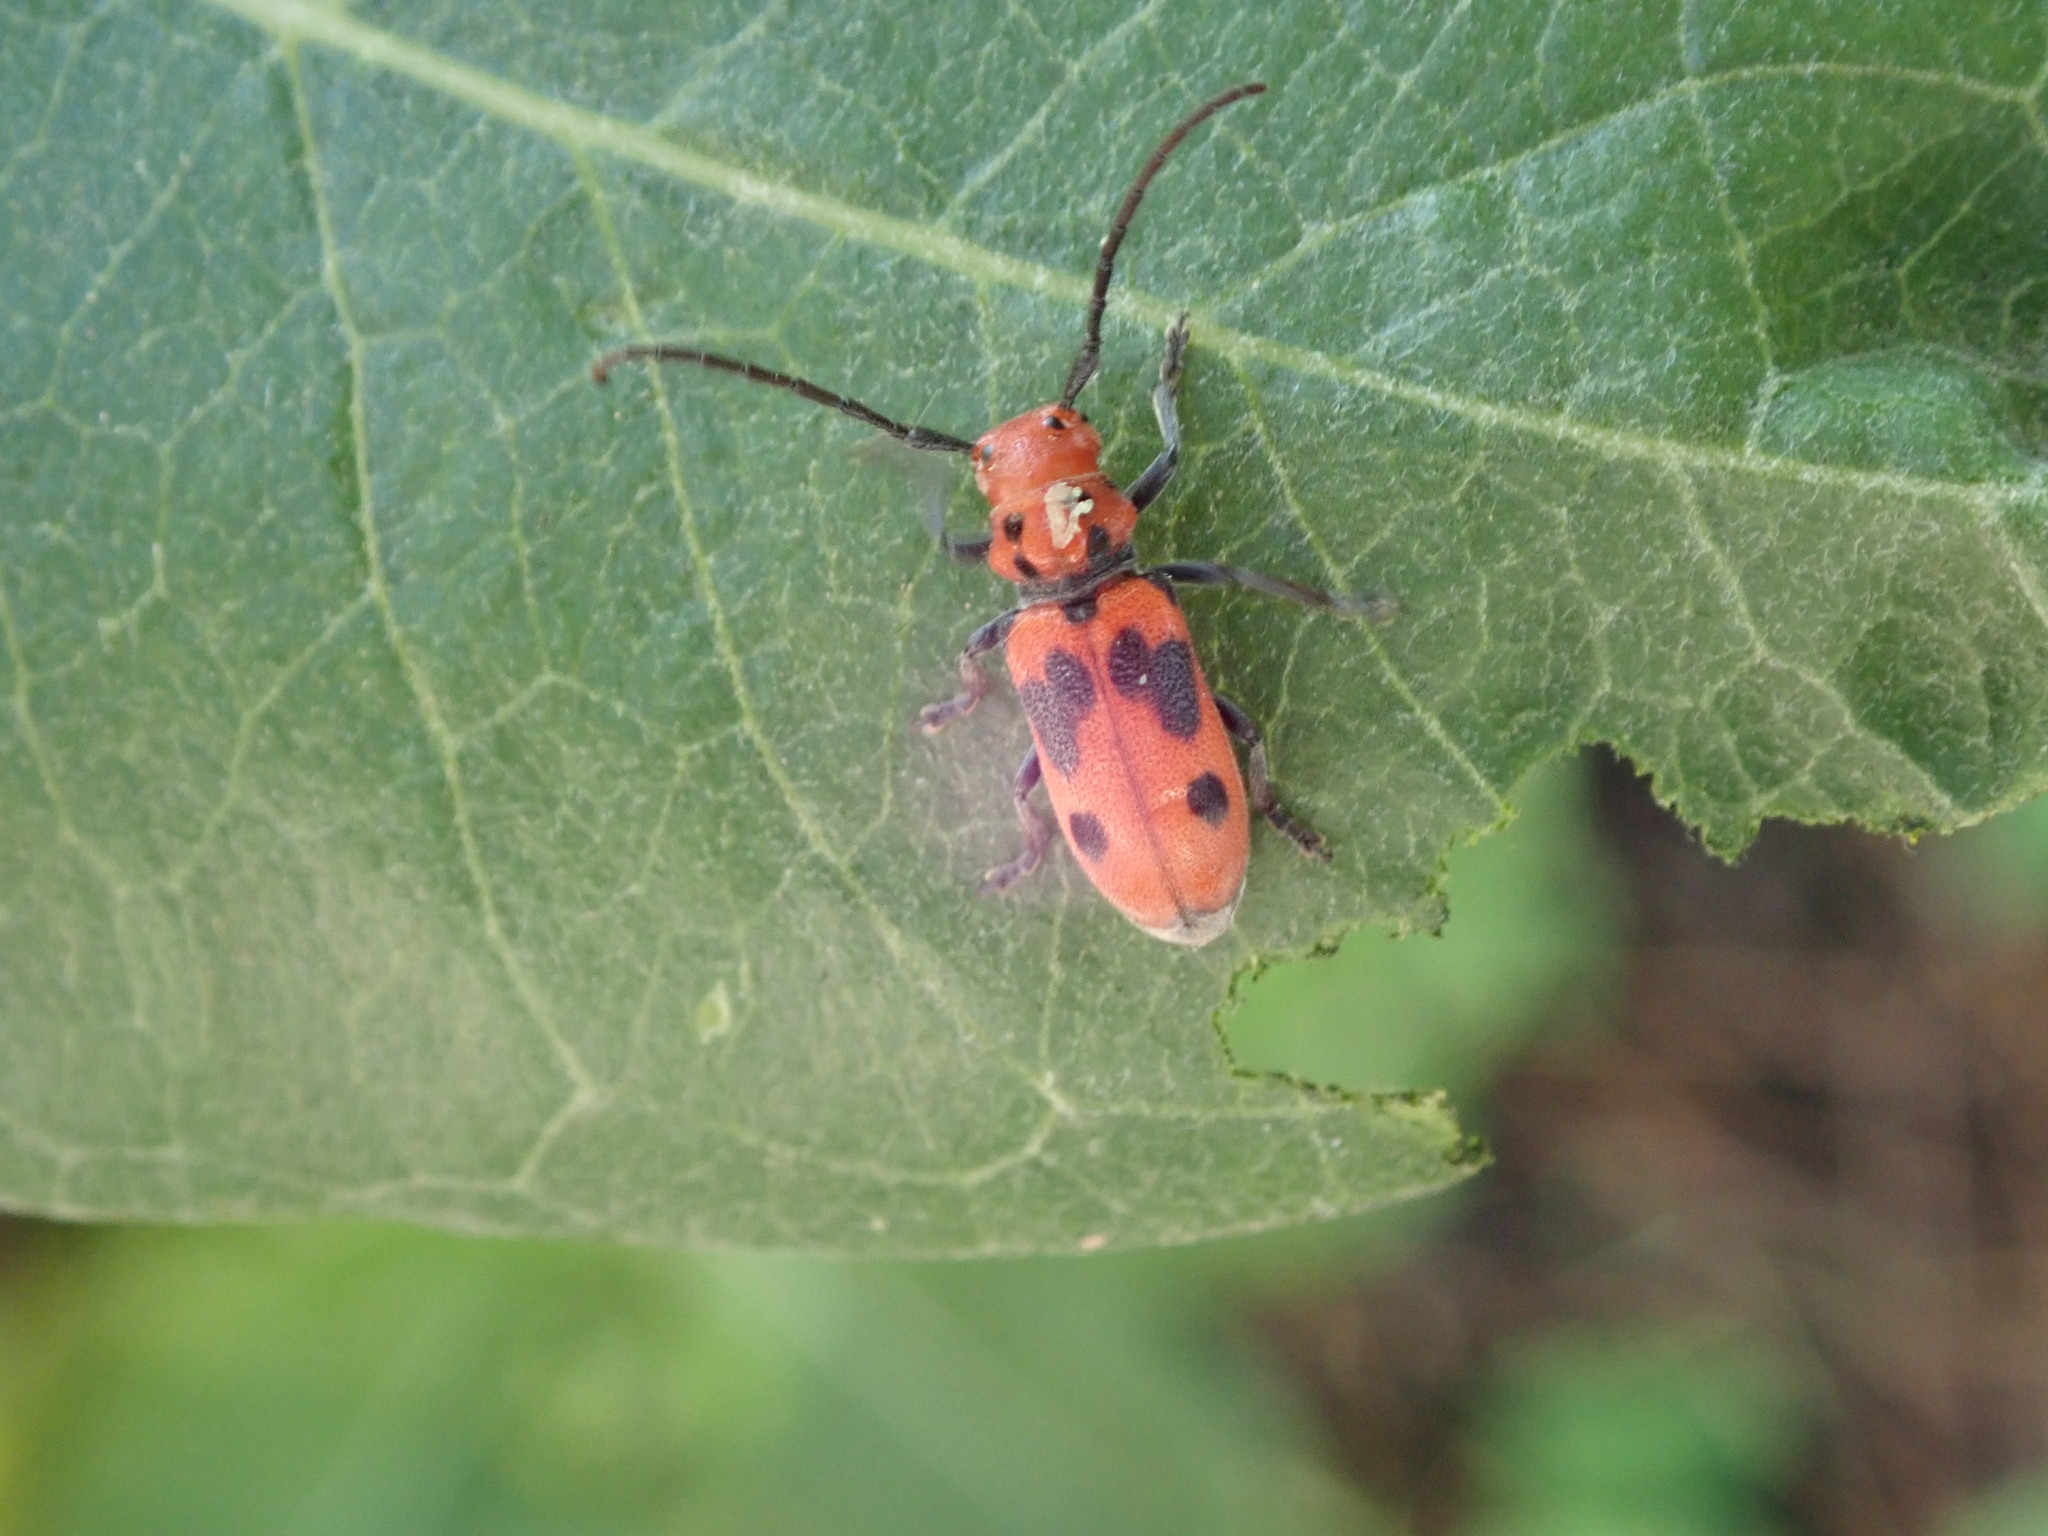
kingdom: Animalia
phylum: Arthropoda
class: Insecta
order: Coleoptera
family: Cerambycidae
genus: Tetraopes
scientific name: Tetraopes tetrophthalmus
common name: Red milkweed beetle
